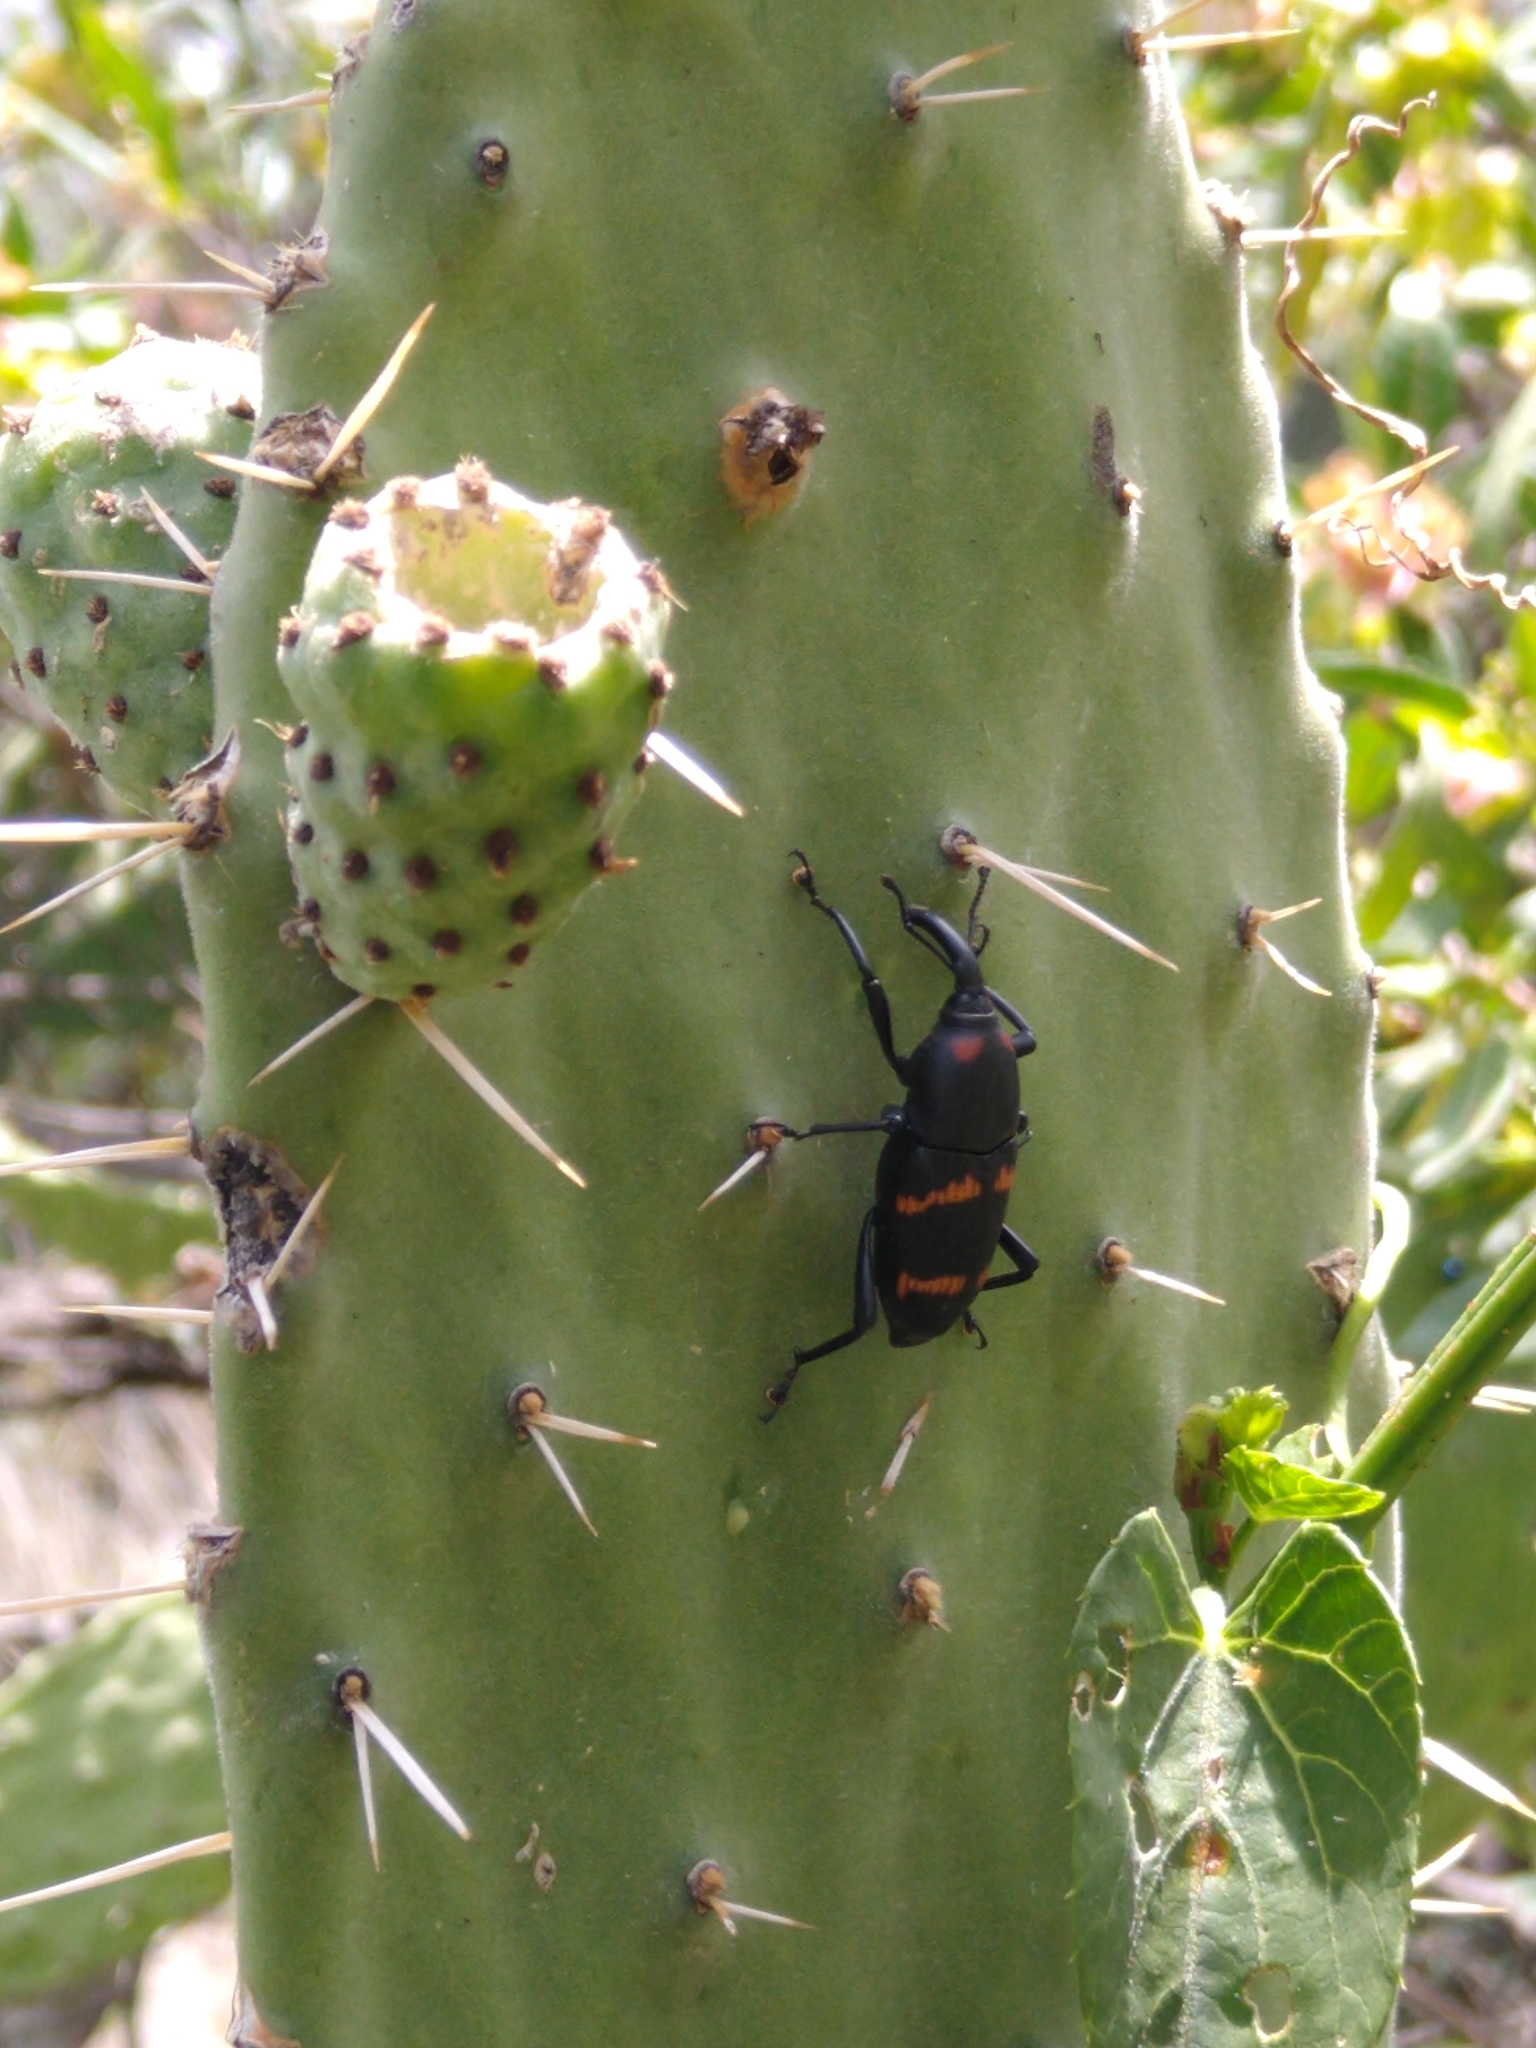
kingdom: Animalia
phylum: Arthropoda
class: Insecta
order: Coleoptera
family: Dryophthoridae
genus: Cactophagus
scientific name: Cactophagus spinolae
